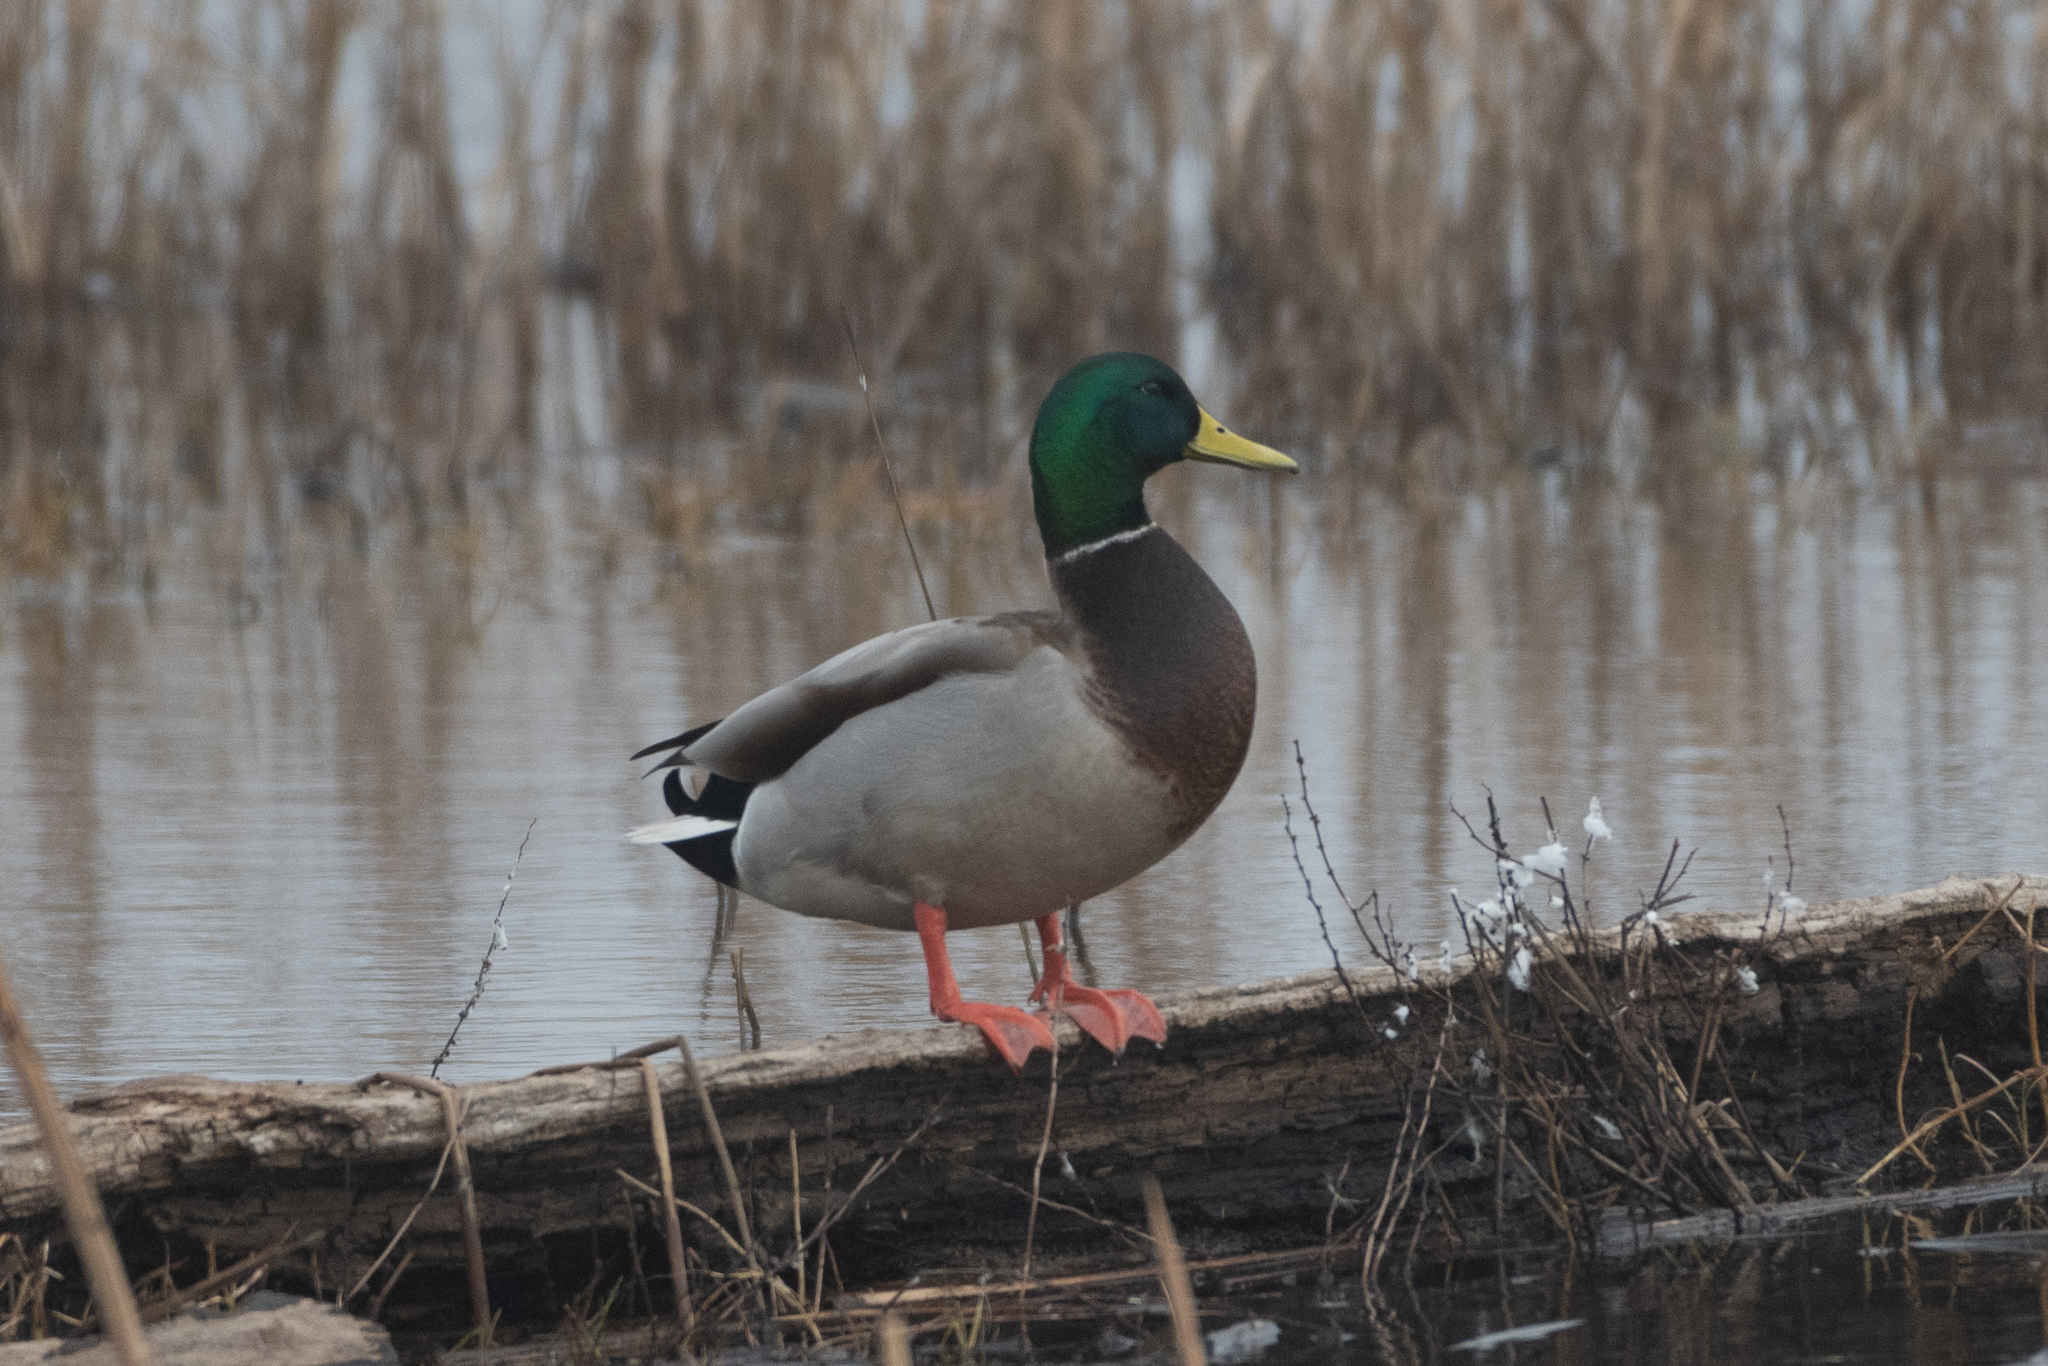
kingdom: Animalia
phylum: Chordata
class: Aves
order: Anseriformes
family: Anatidae
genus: Anas
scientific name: Anas platyrhynchos
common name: Mallard
